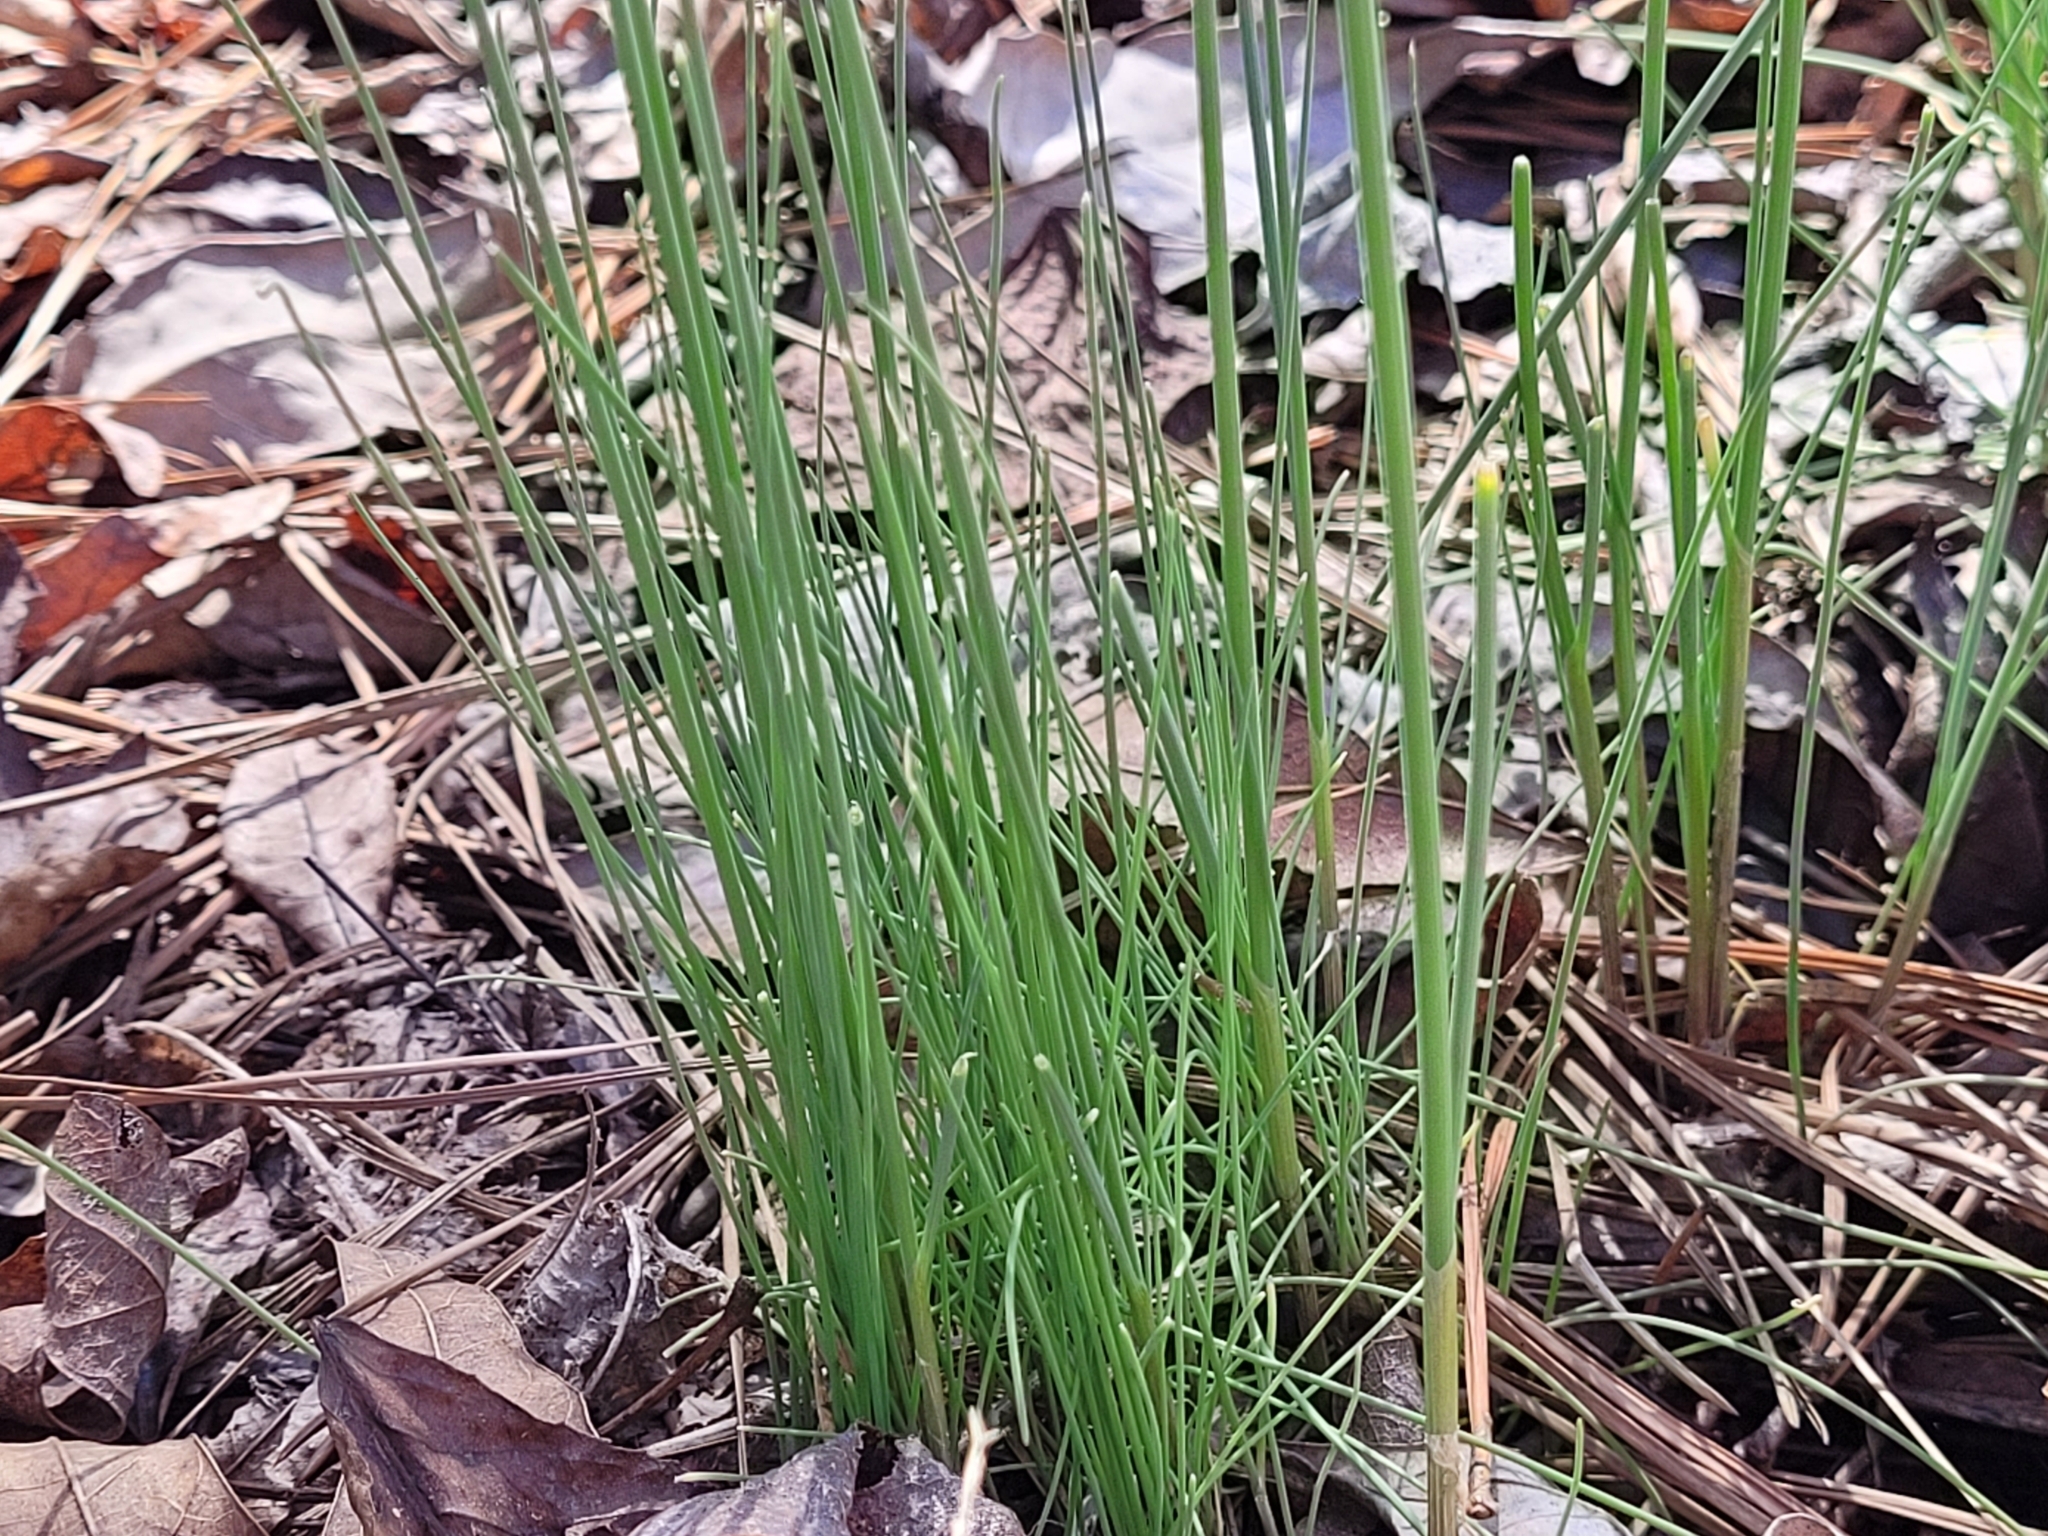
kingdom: Plantae
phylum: Tracheophyta
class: Liliopsida
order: Asparagales
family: Amaryllidaceae
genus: Allium
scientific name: Allium vineale
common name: Crow garlic
